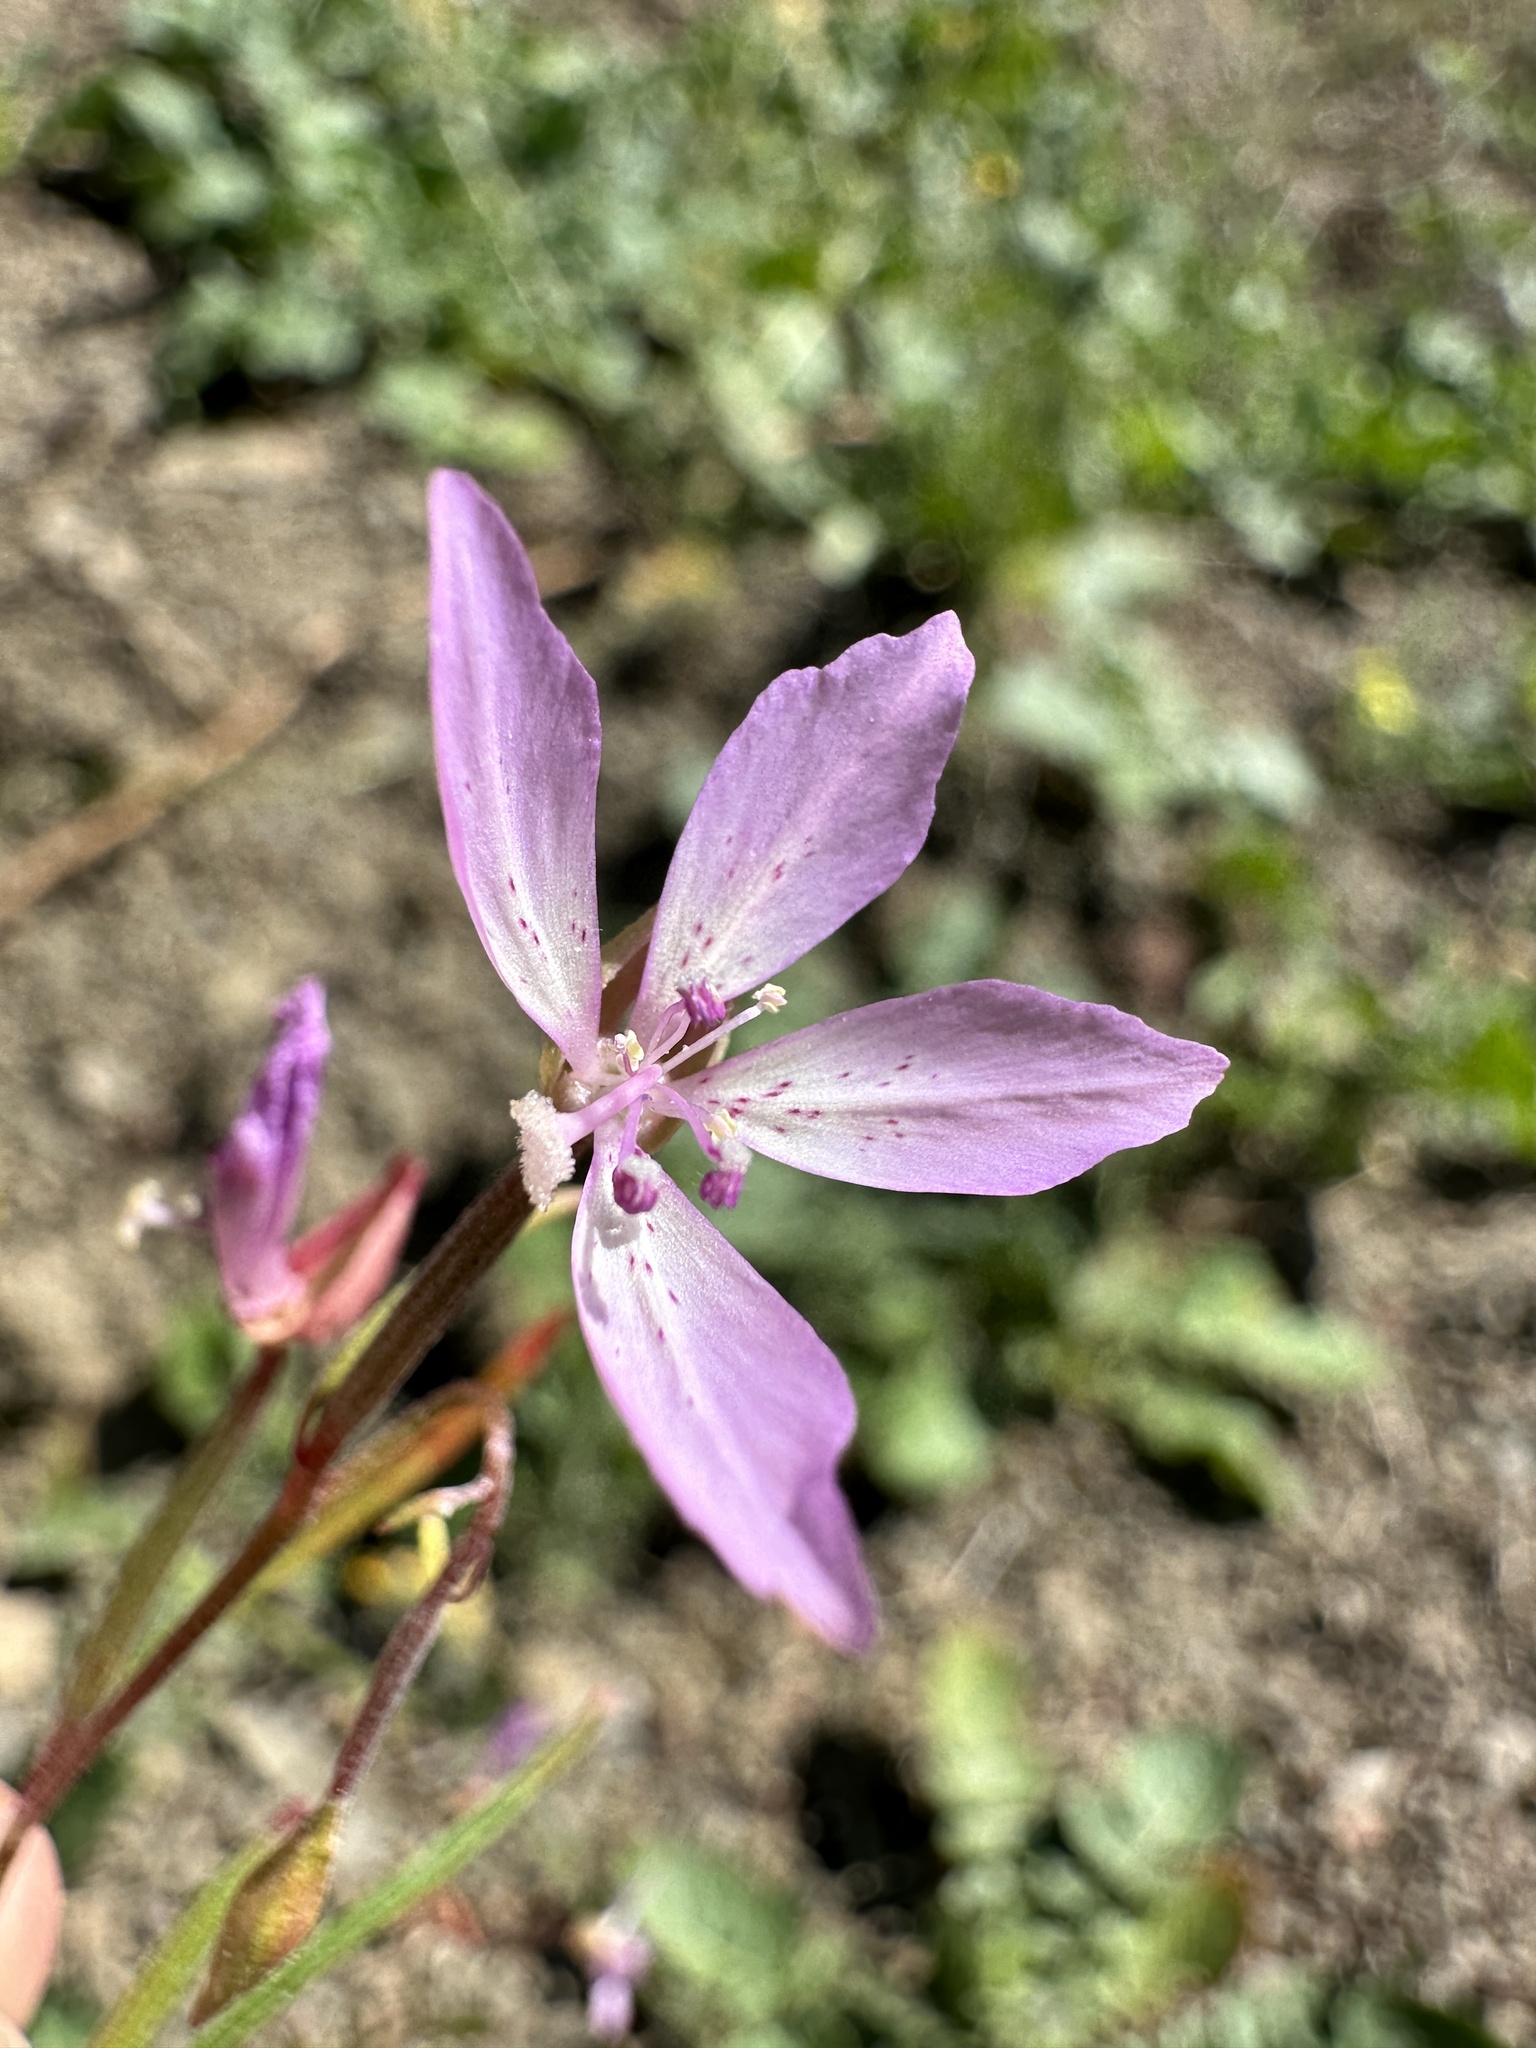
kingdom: Plantae
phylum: Tracheophyta
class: Magnoliopsida
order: Myrtales
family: Onagraceae
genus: Clarkia
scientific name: Clarkia modesta
